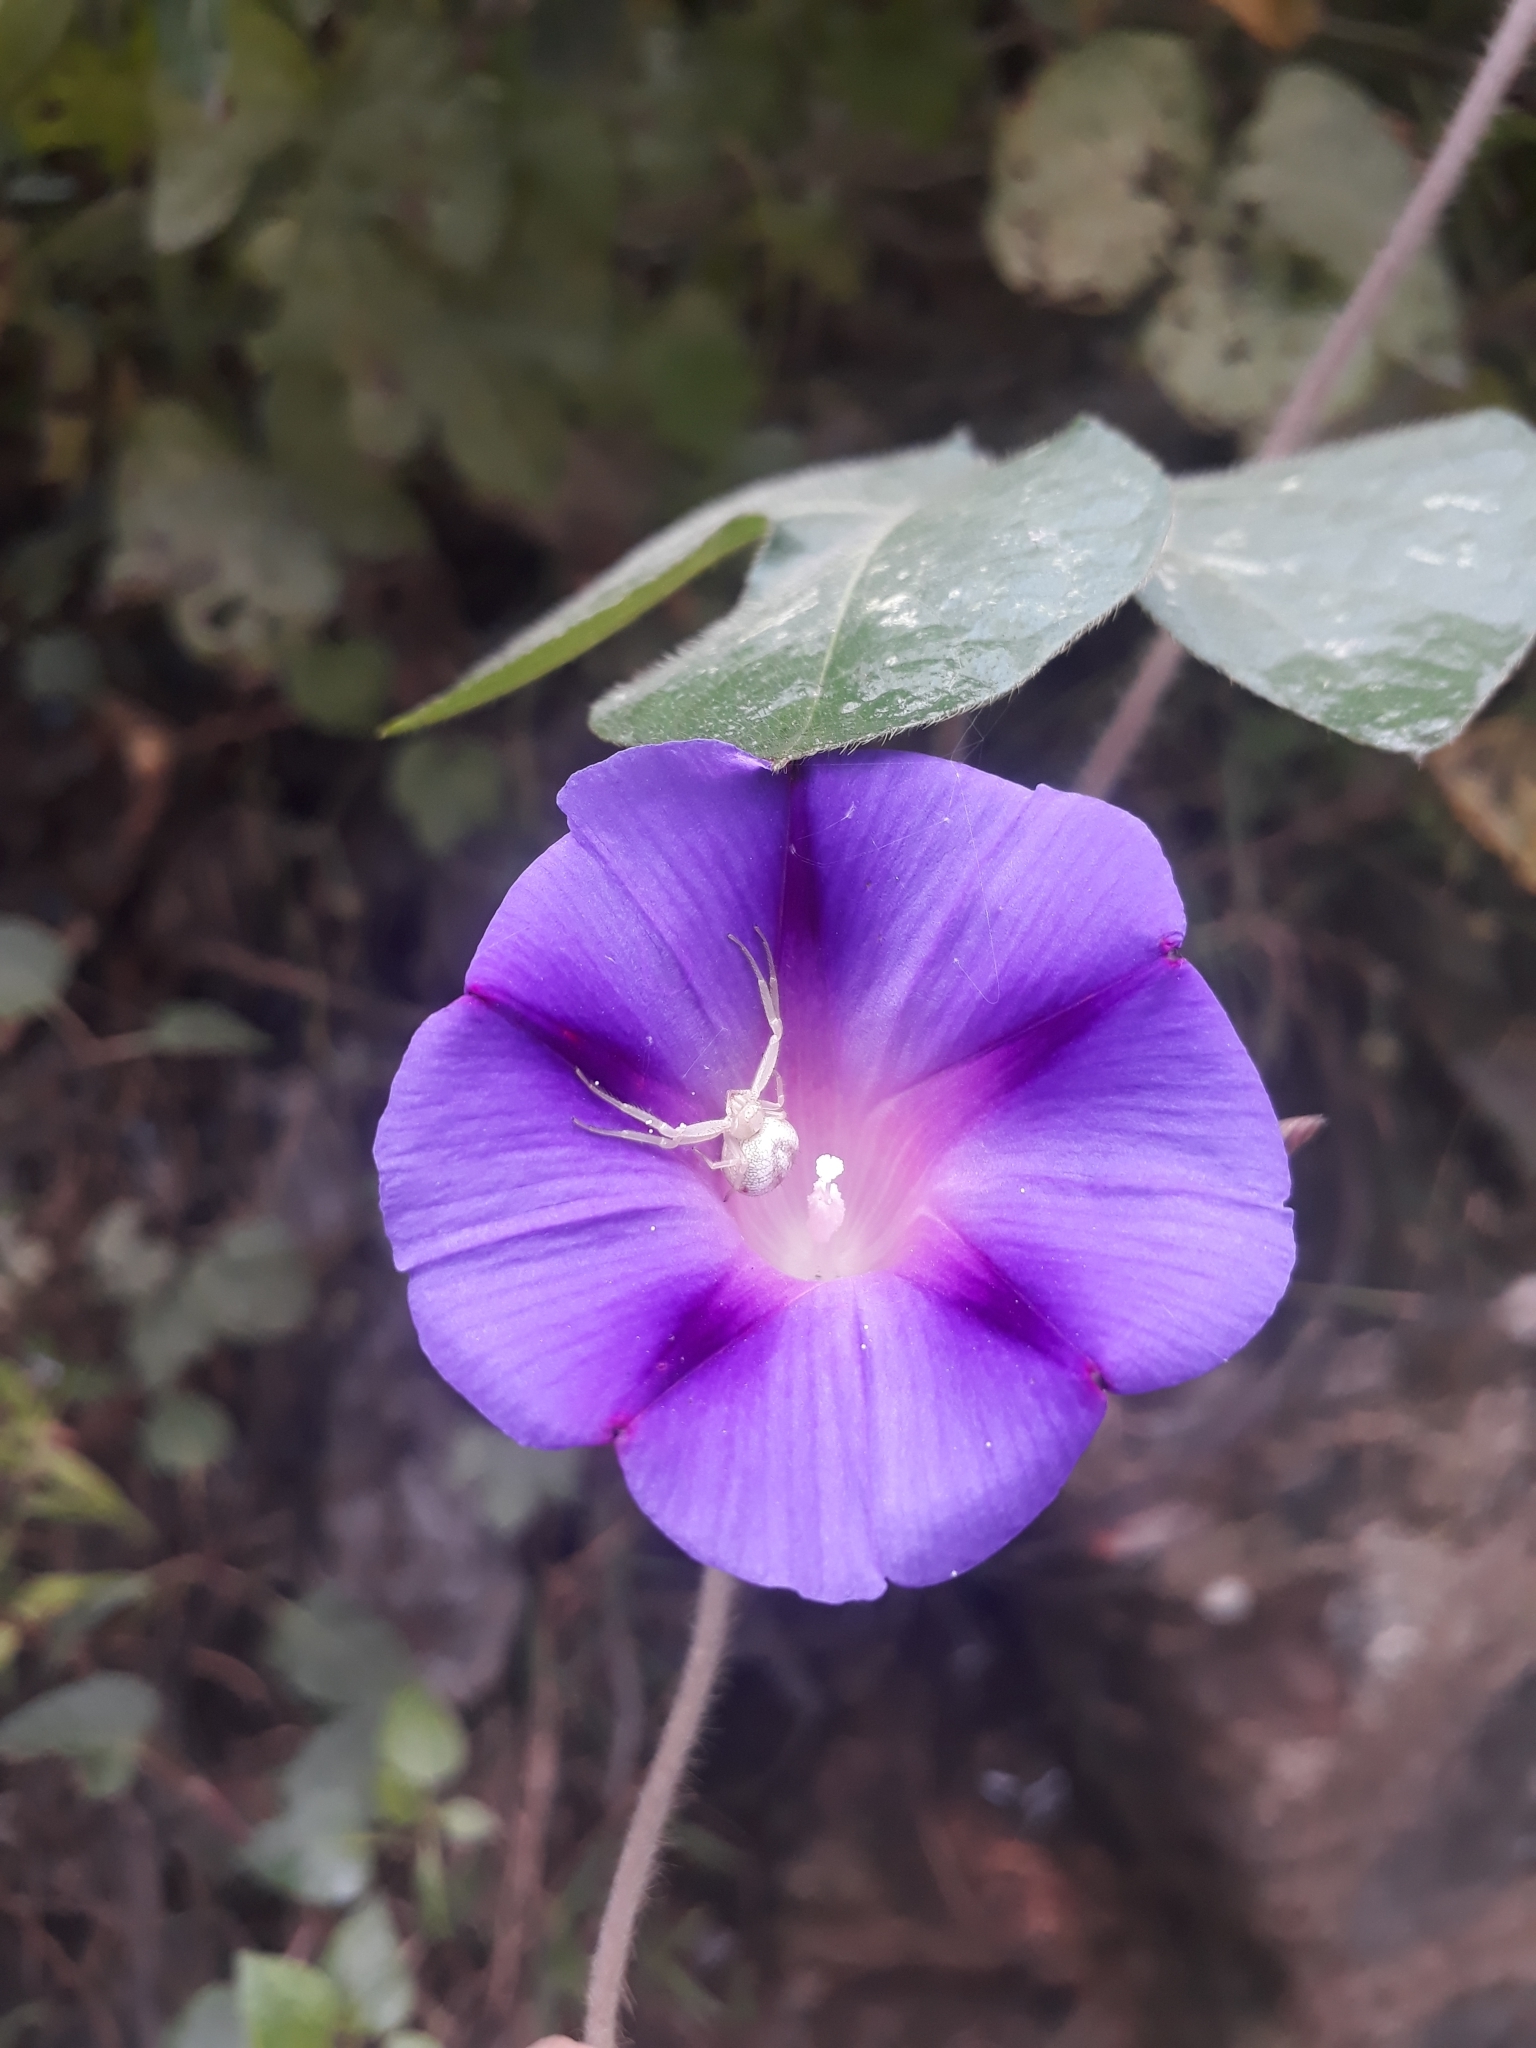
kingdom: Plantae
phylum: Tracheophyta
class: Magnoliopsida
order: Solanales
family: Convolvulaceae
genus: Ipomoea
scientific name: Ipomoea purpurea
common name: Common morning-glory
